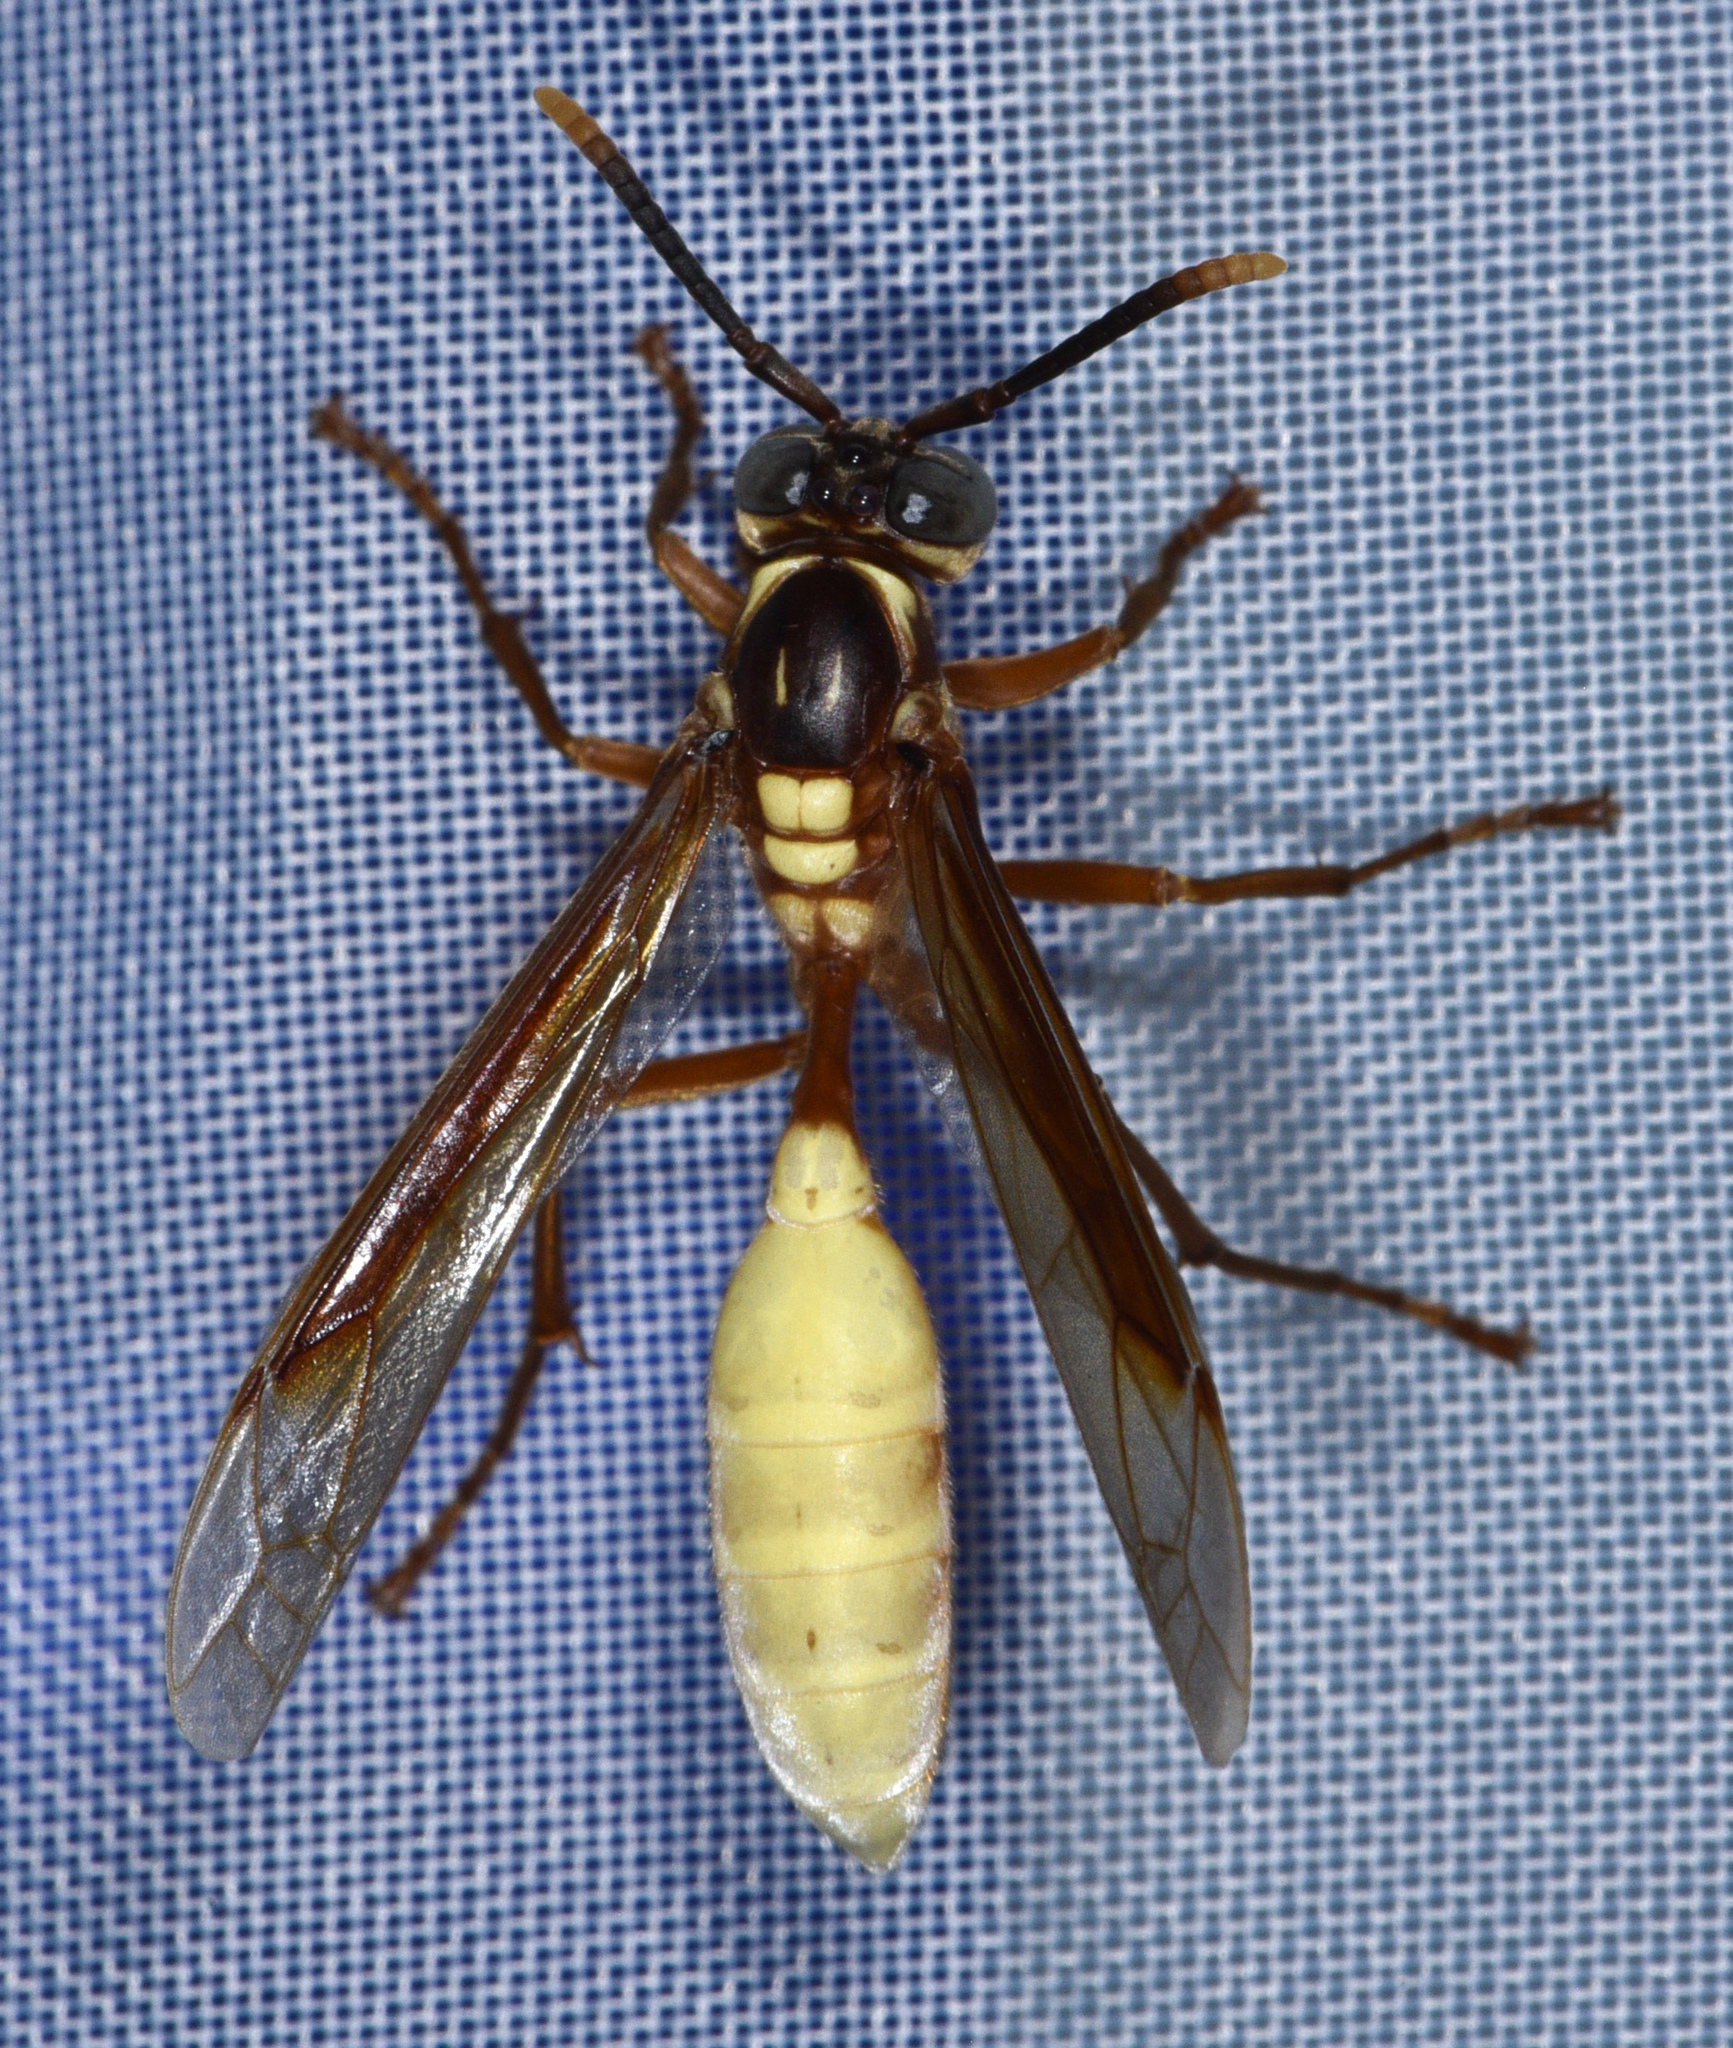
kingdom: Animalia
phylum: Arthropoda
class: Insecta
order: Hymenoptera
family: Vespidae
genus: Apoica
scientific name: Apoica pallens
